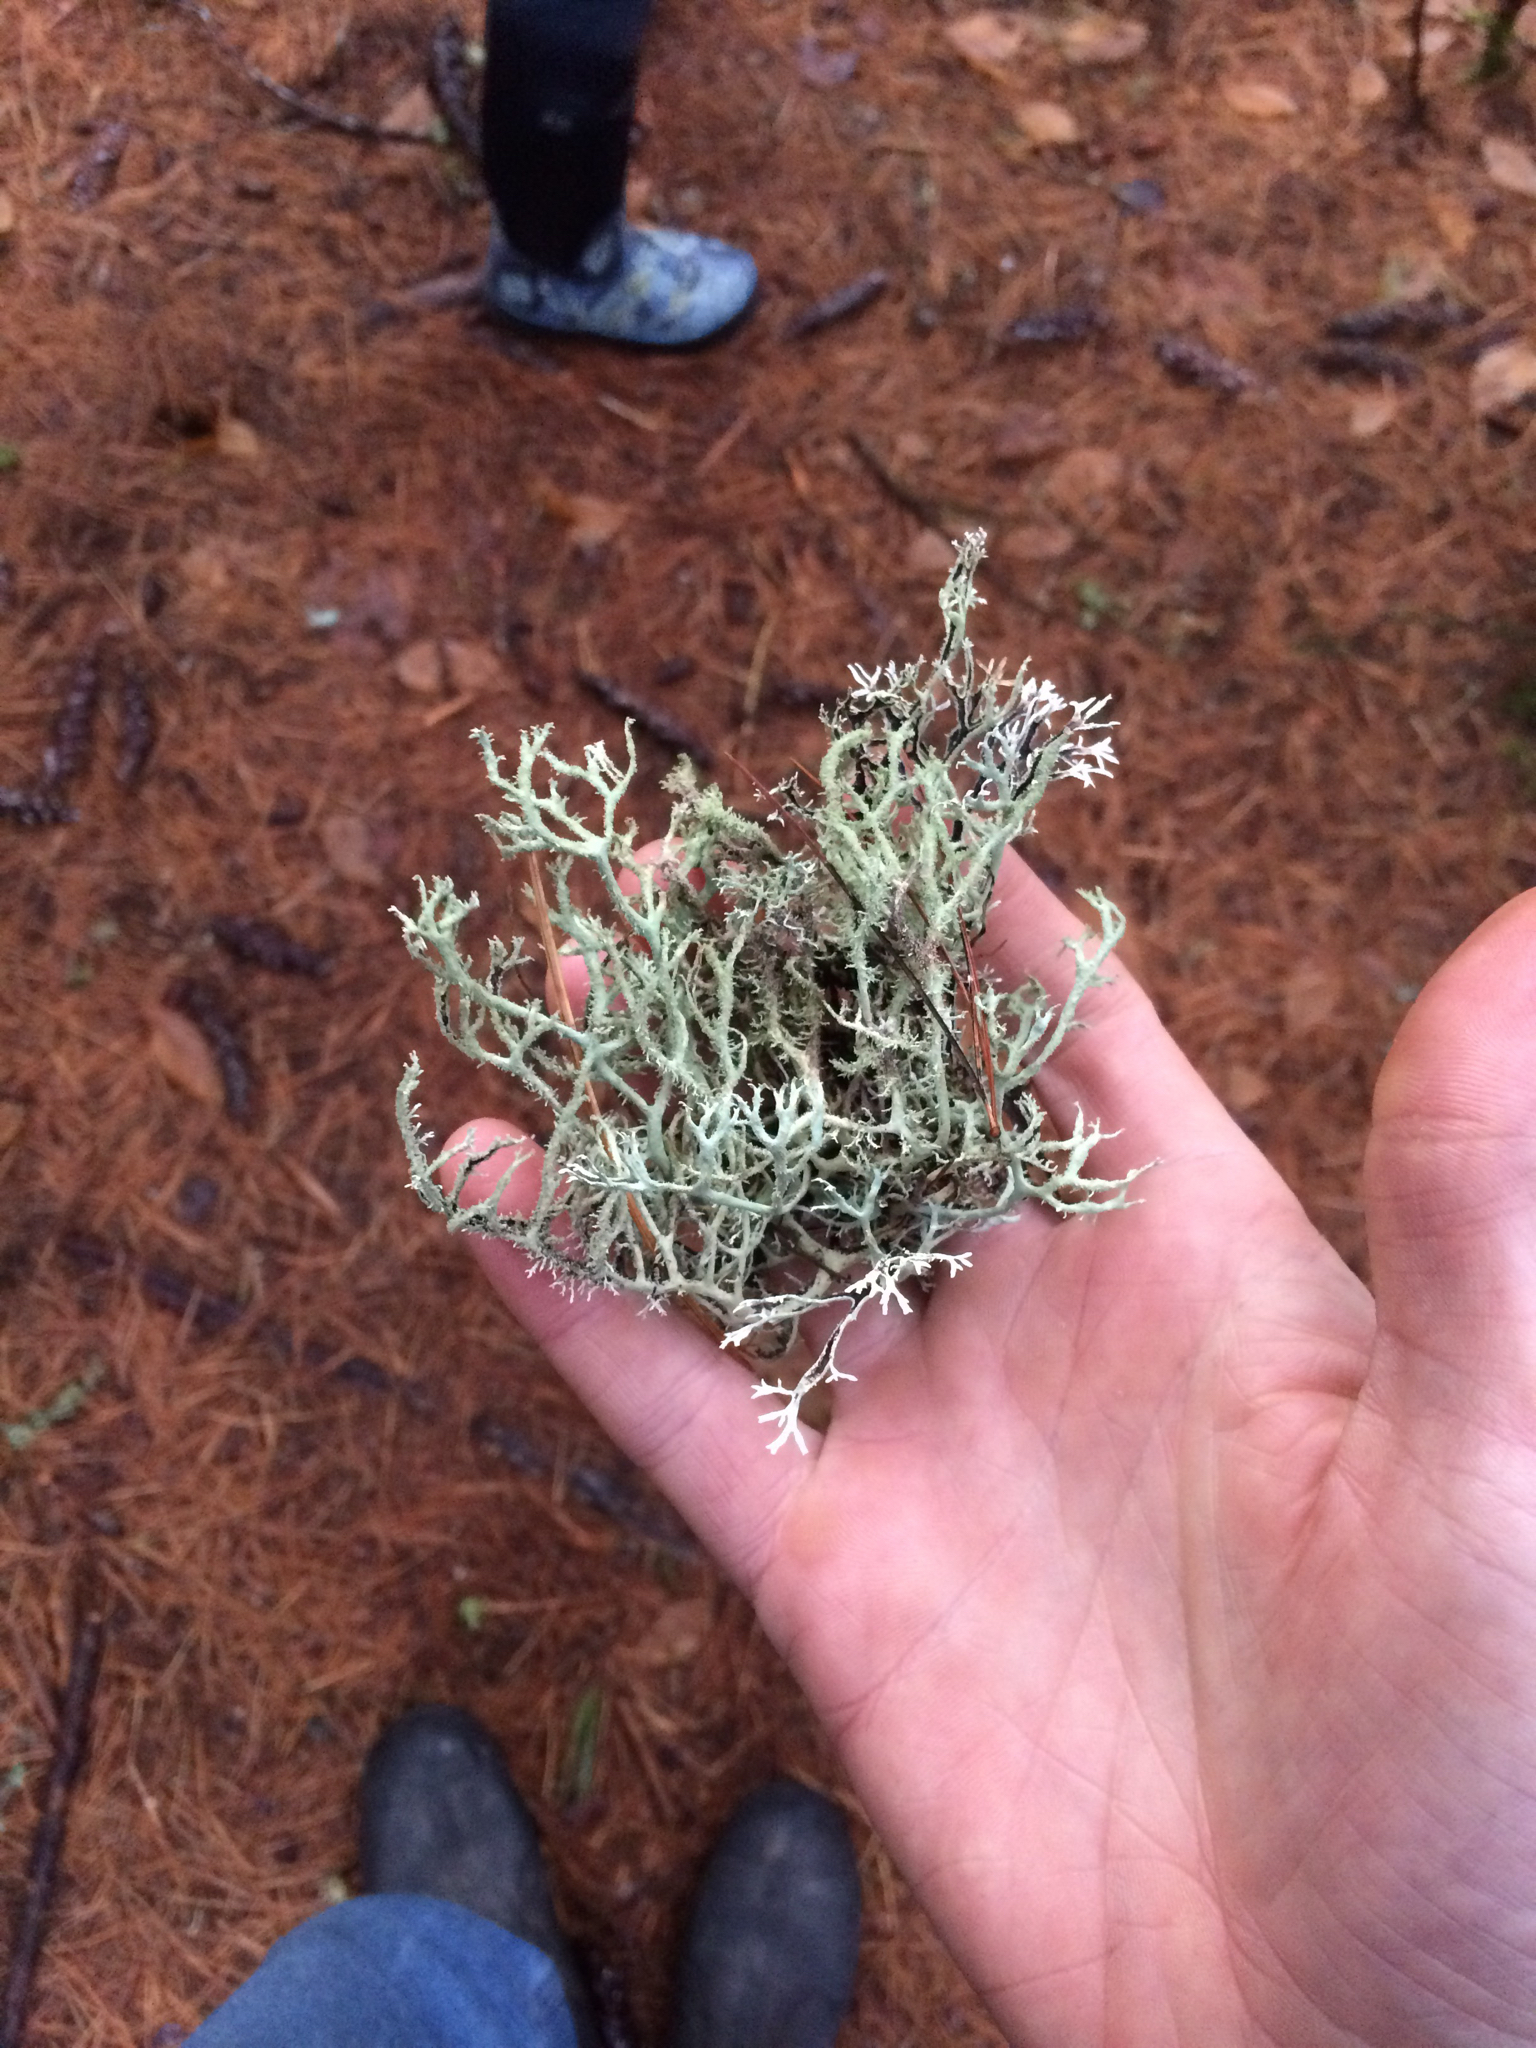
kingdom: Fungi
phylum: Ascomycota
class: Lecanoromycetes
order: Lecanorales
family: Parmeliaceae
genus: Pseudevernia
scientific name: Pseudevernia consocians
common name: Common antler lichen
